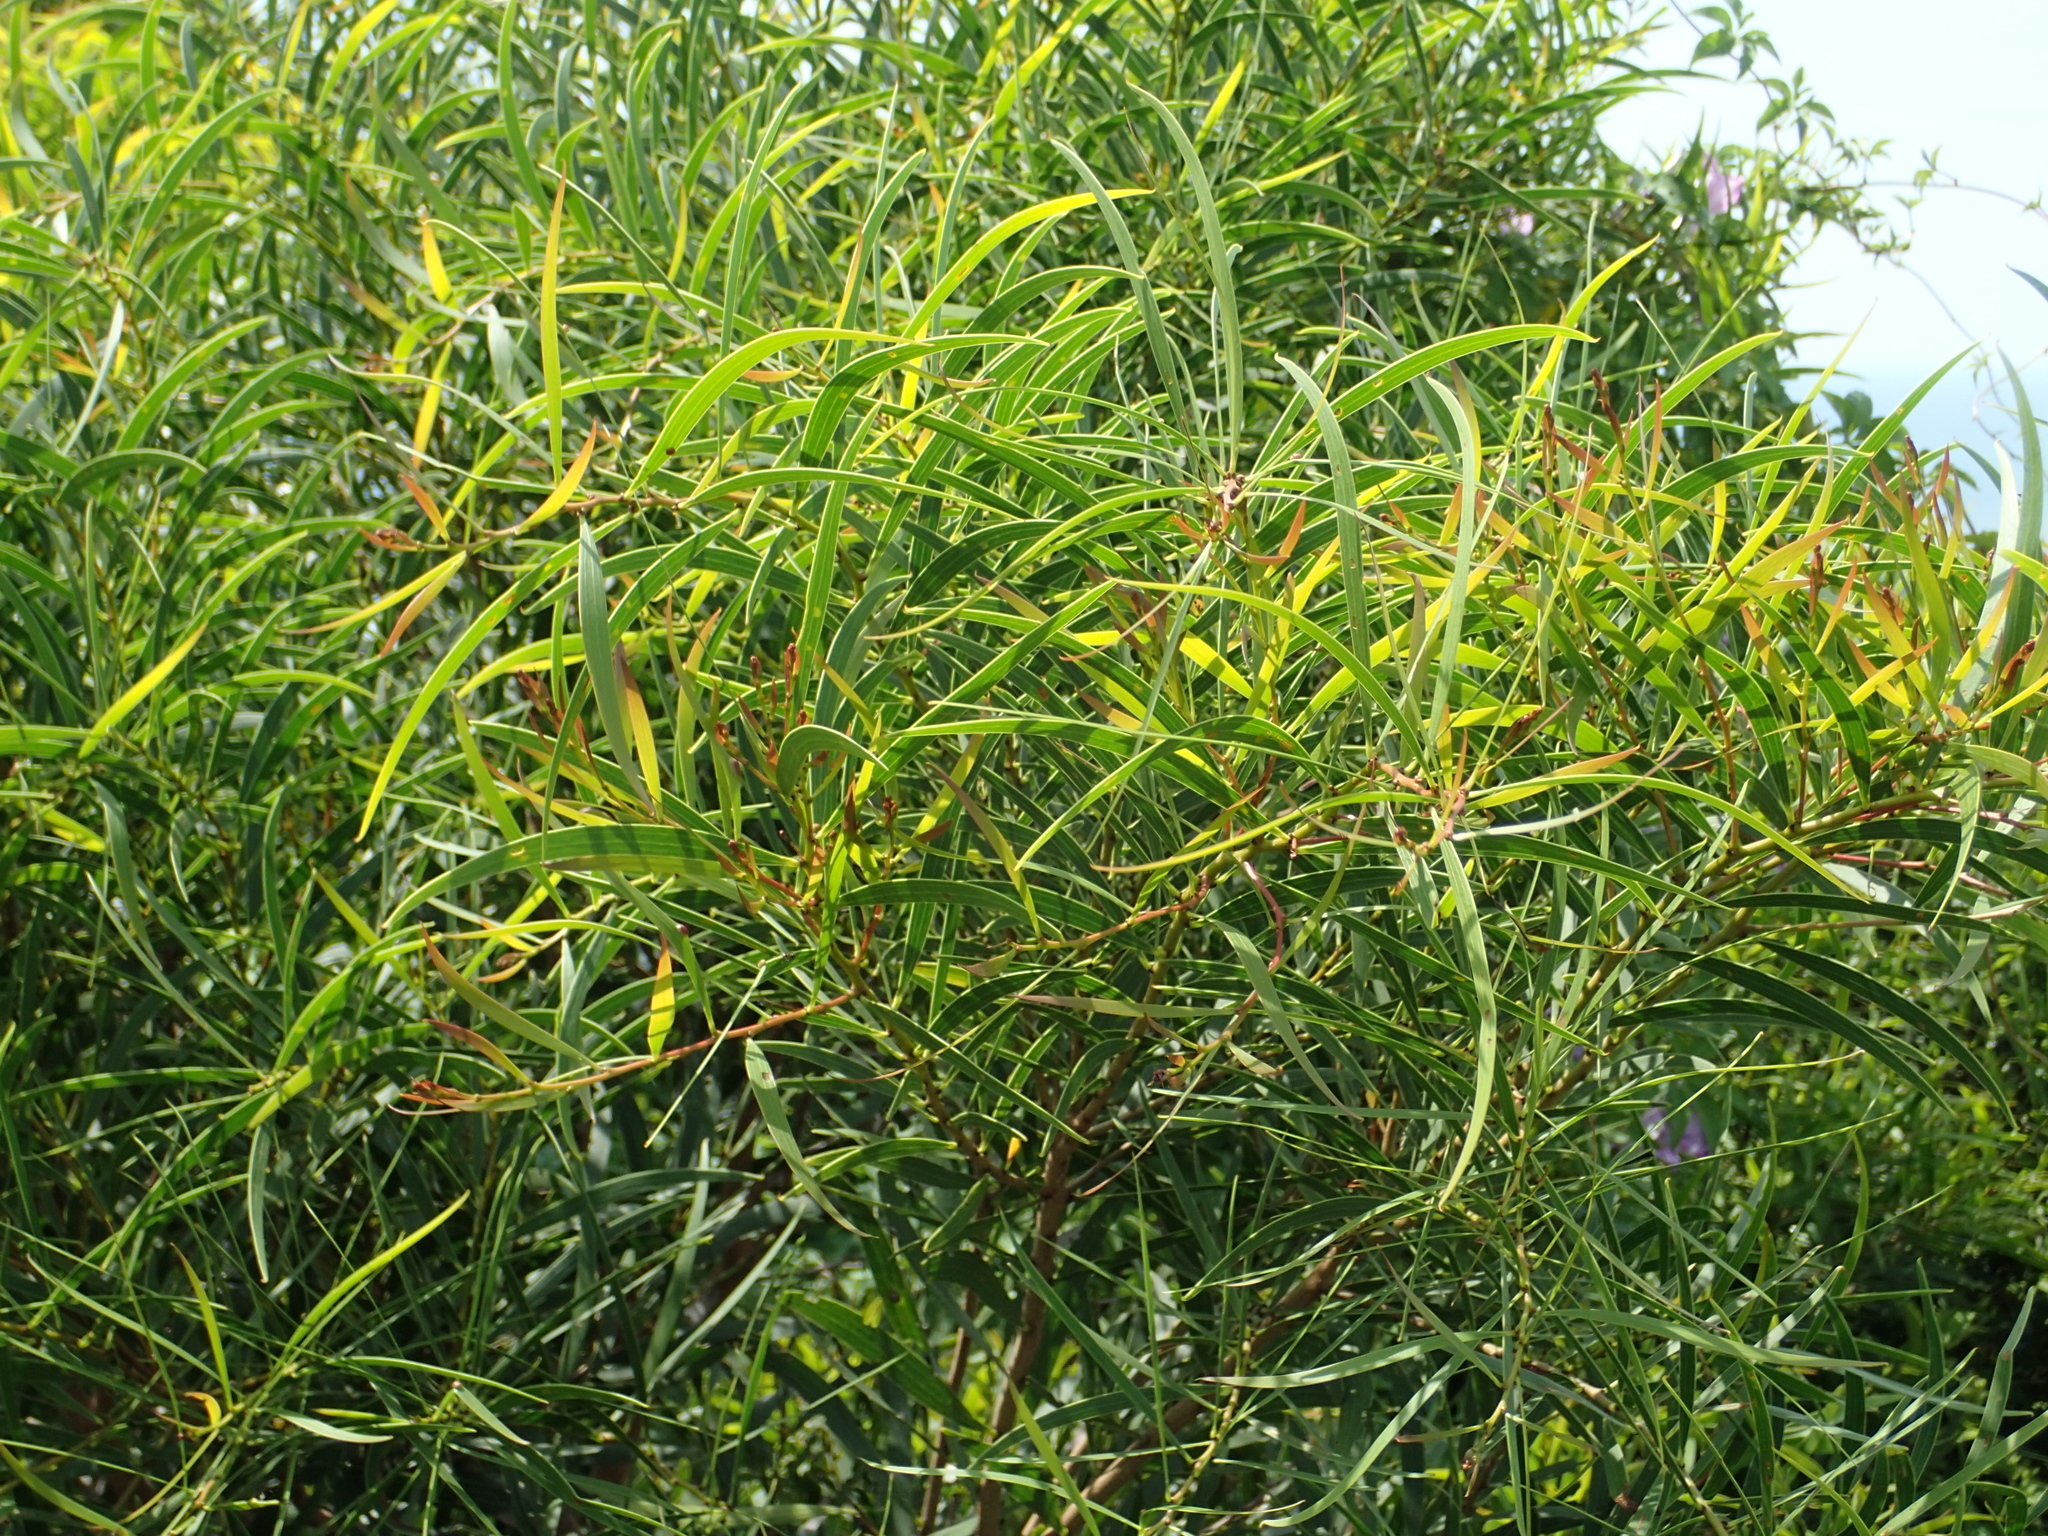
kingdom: Plantae
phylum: Tracheophyta
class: Magnoliopsida
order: Fabales
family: Fabaceae
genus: Acacia
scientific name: Acacia confusa
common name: Formosan koa
